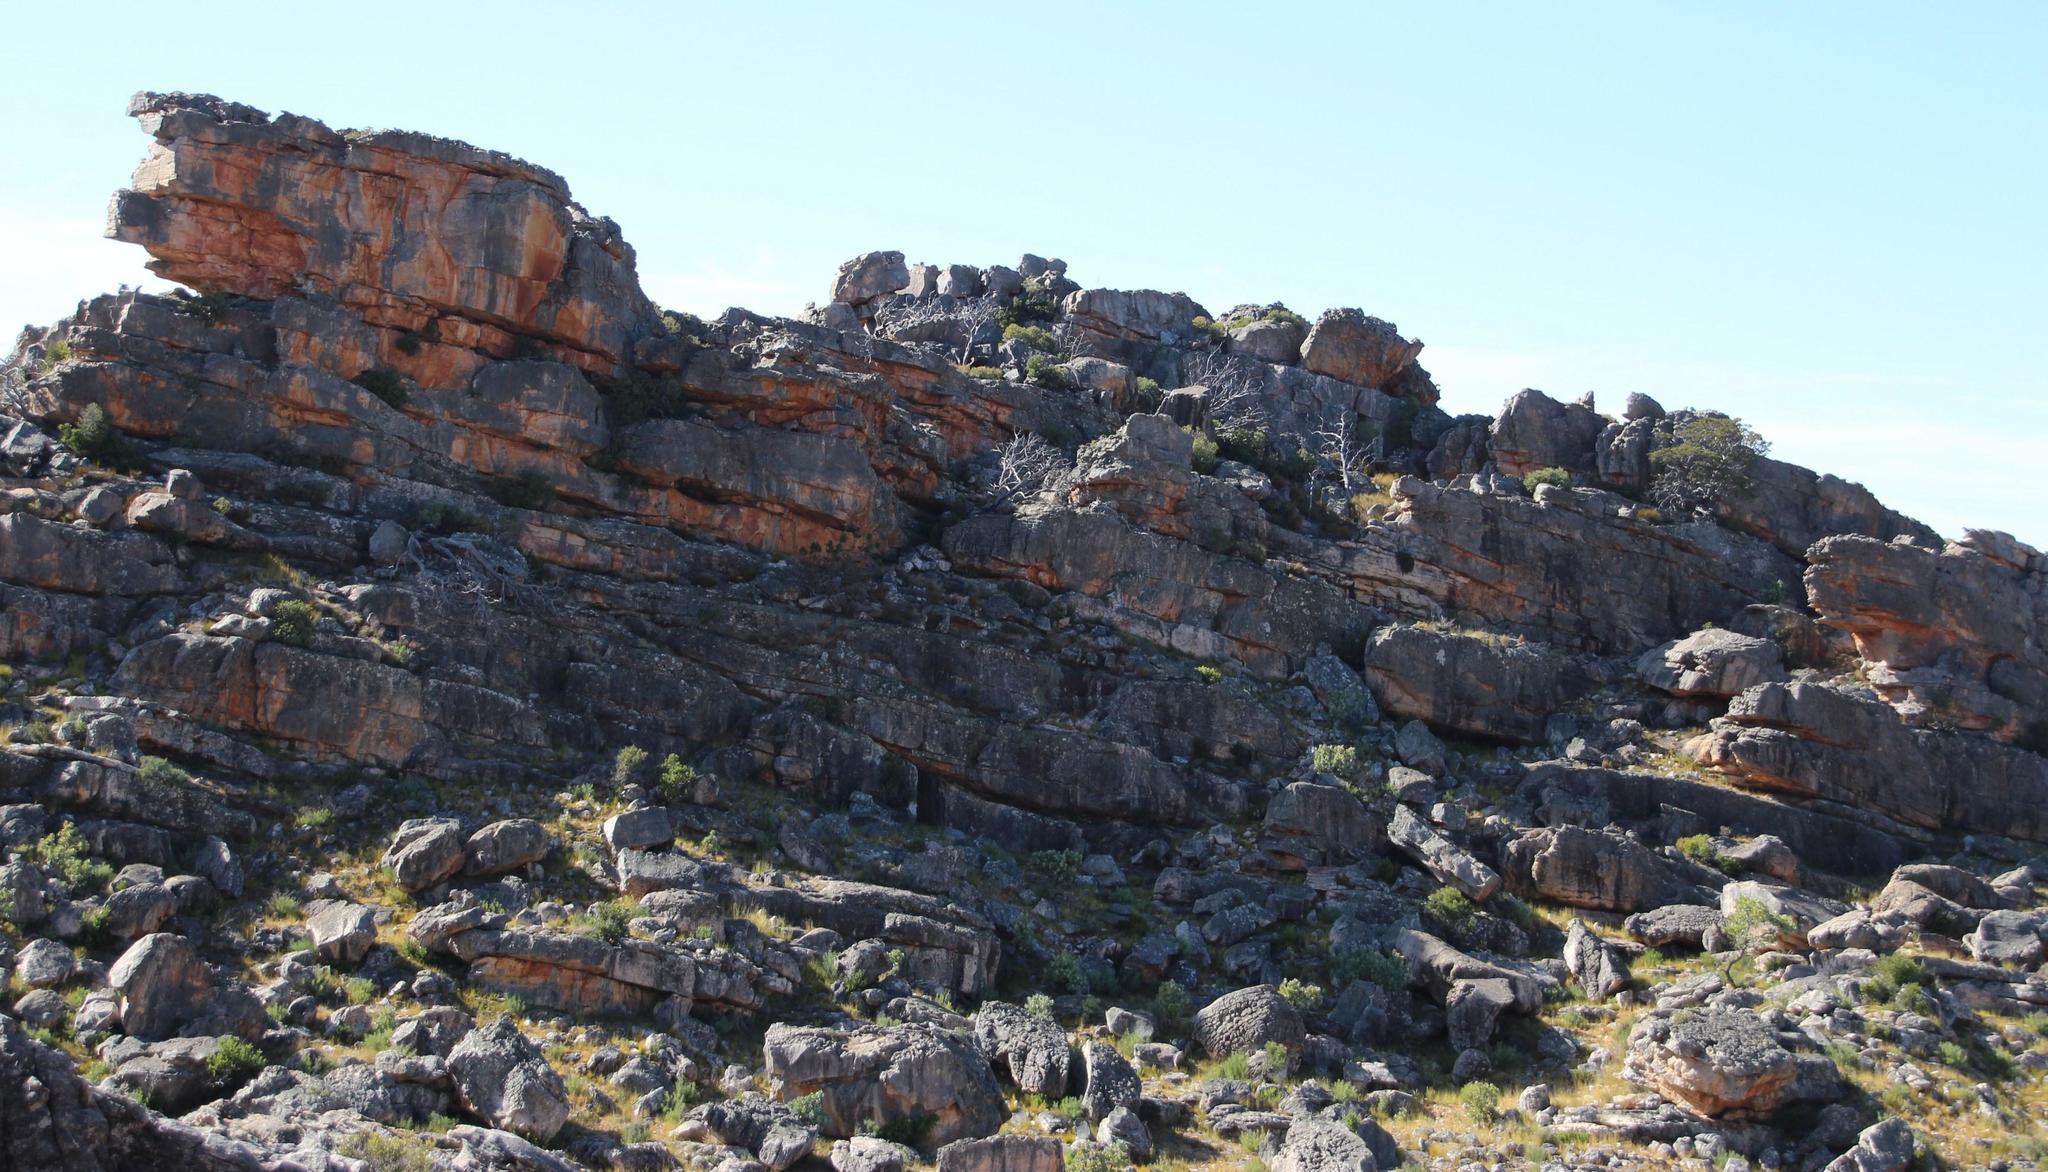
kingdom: Plantae
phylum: Tracheophyta
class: Pinopsida
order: Pinales
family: Cupressaceae
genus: Widdringtonia
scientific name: Widdringtonia nodiflora
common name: Cape cypress
